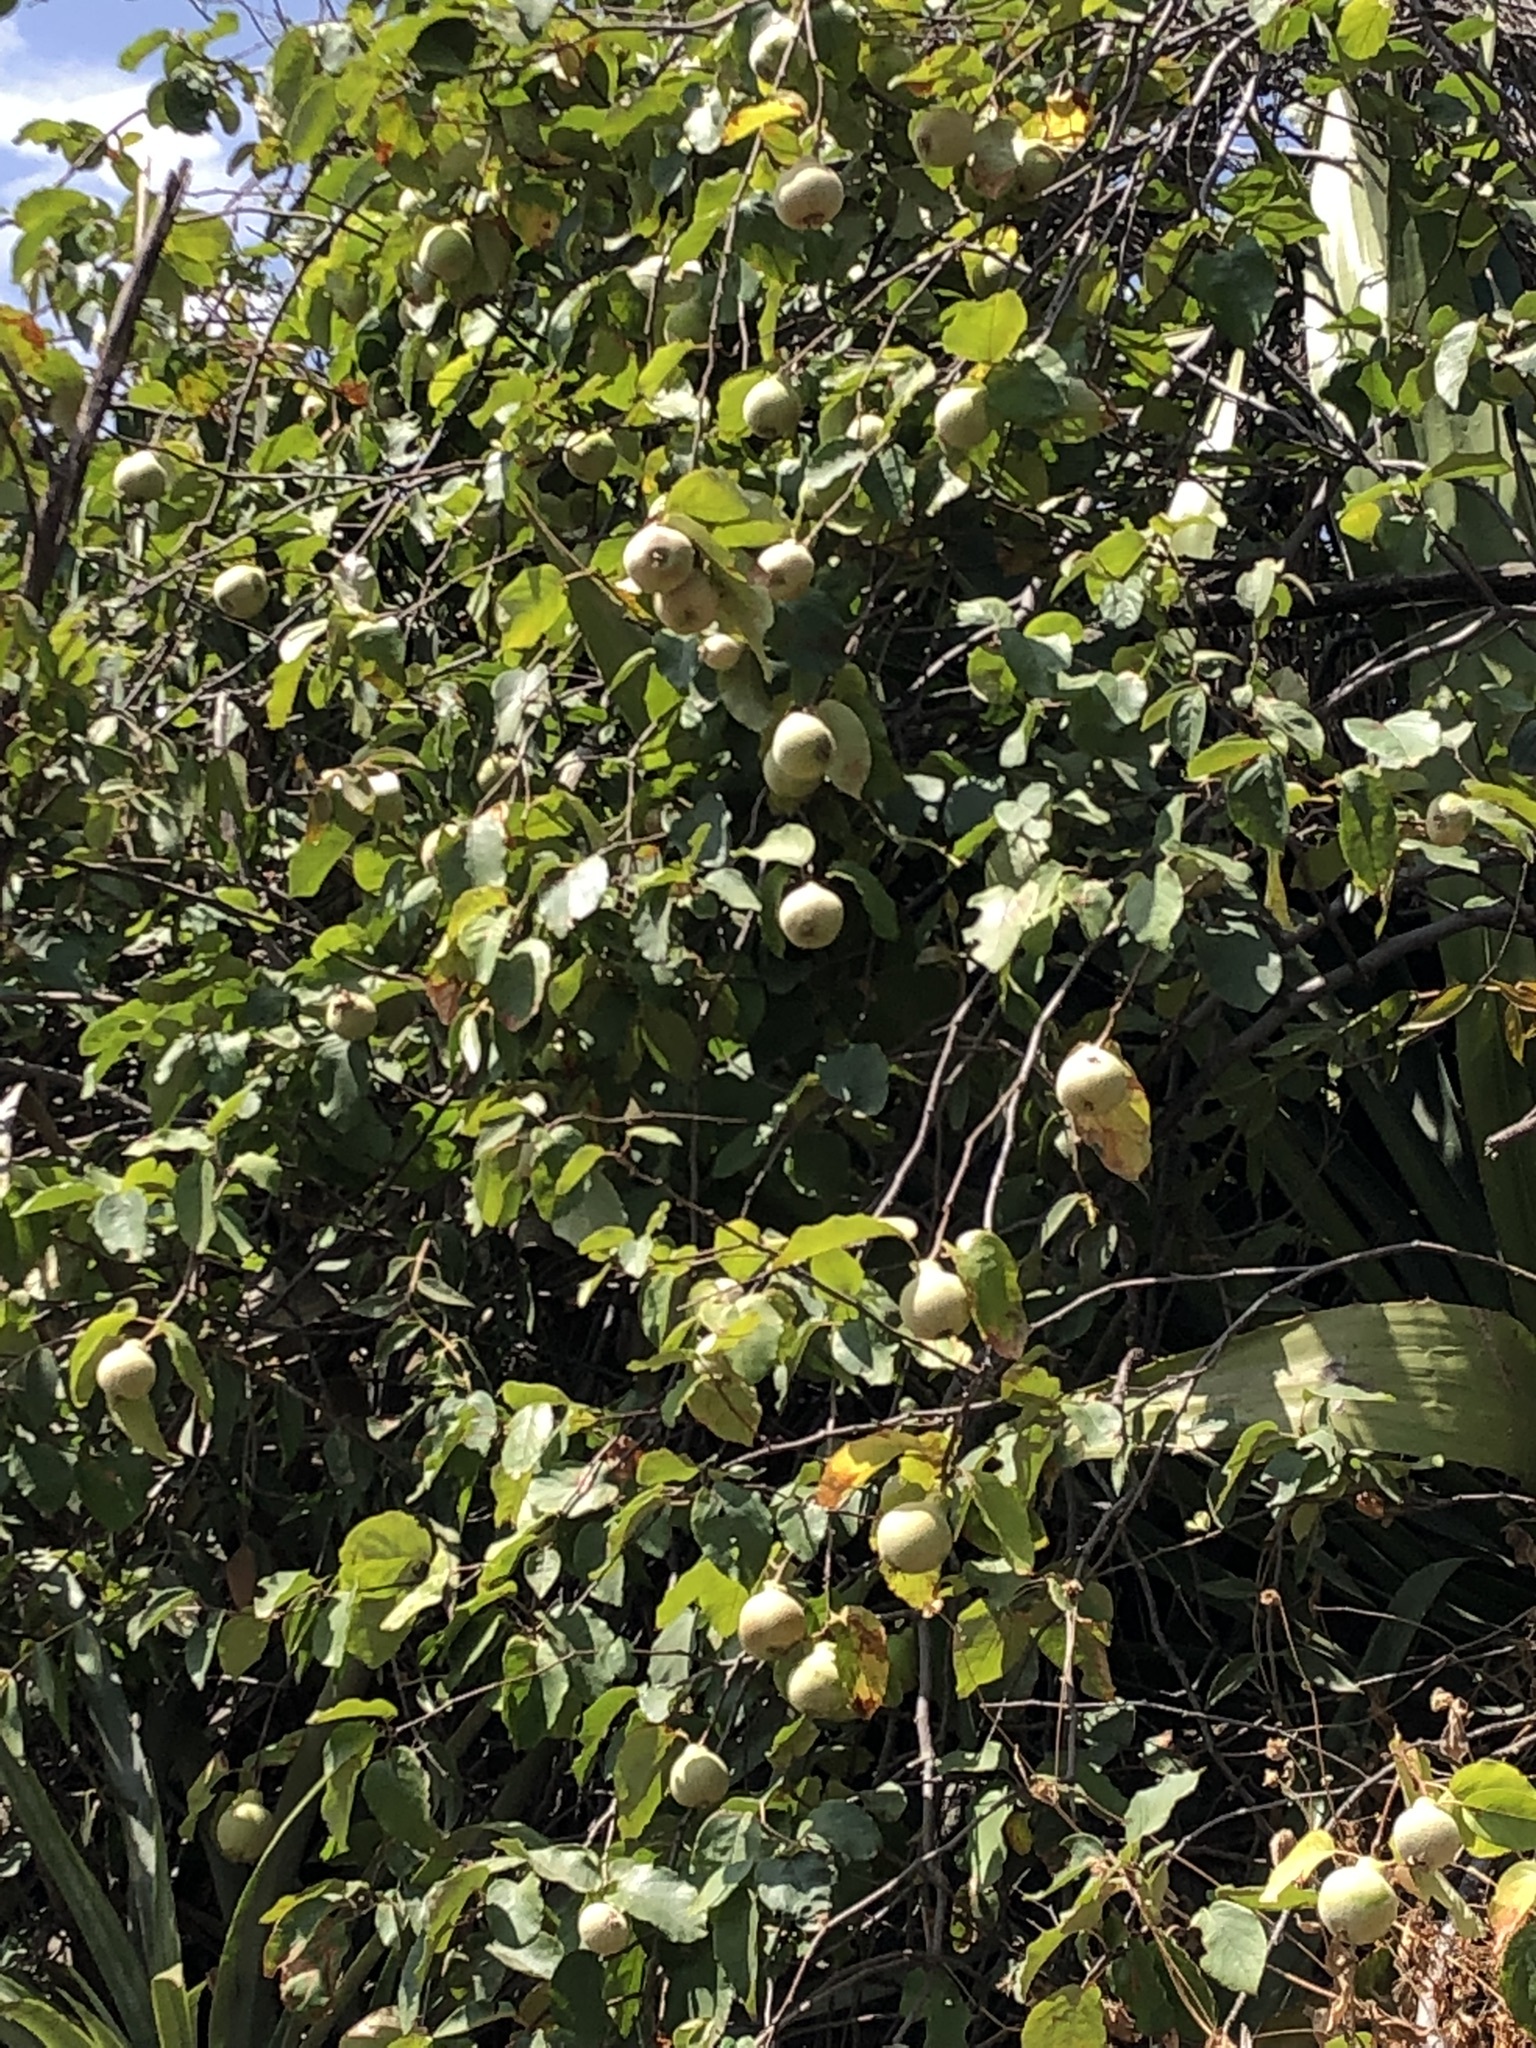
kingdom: Plantae
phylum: Tracheophyta
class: Magnoliopsida
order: Rosales
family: Rosaceae
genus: Cydonia
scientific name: Cydonia oblonga
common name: Quince
